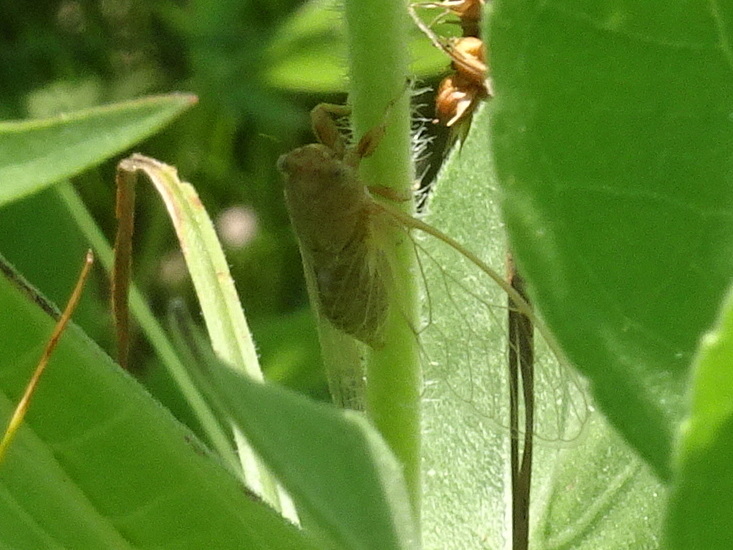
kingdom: Animalia
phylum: Arthropoda
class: Insecta
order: Hemiptera
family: Cicadidae
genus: Cicadettana
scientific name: Cicadettana calliope
